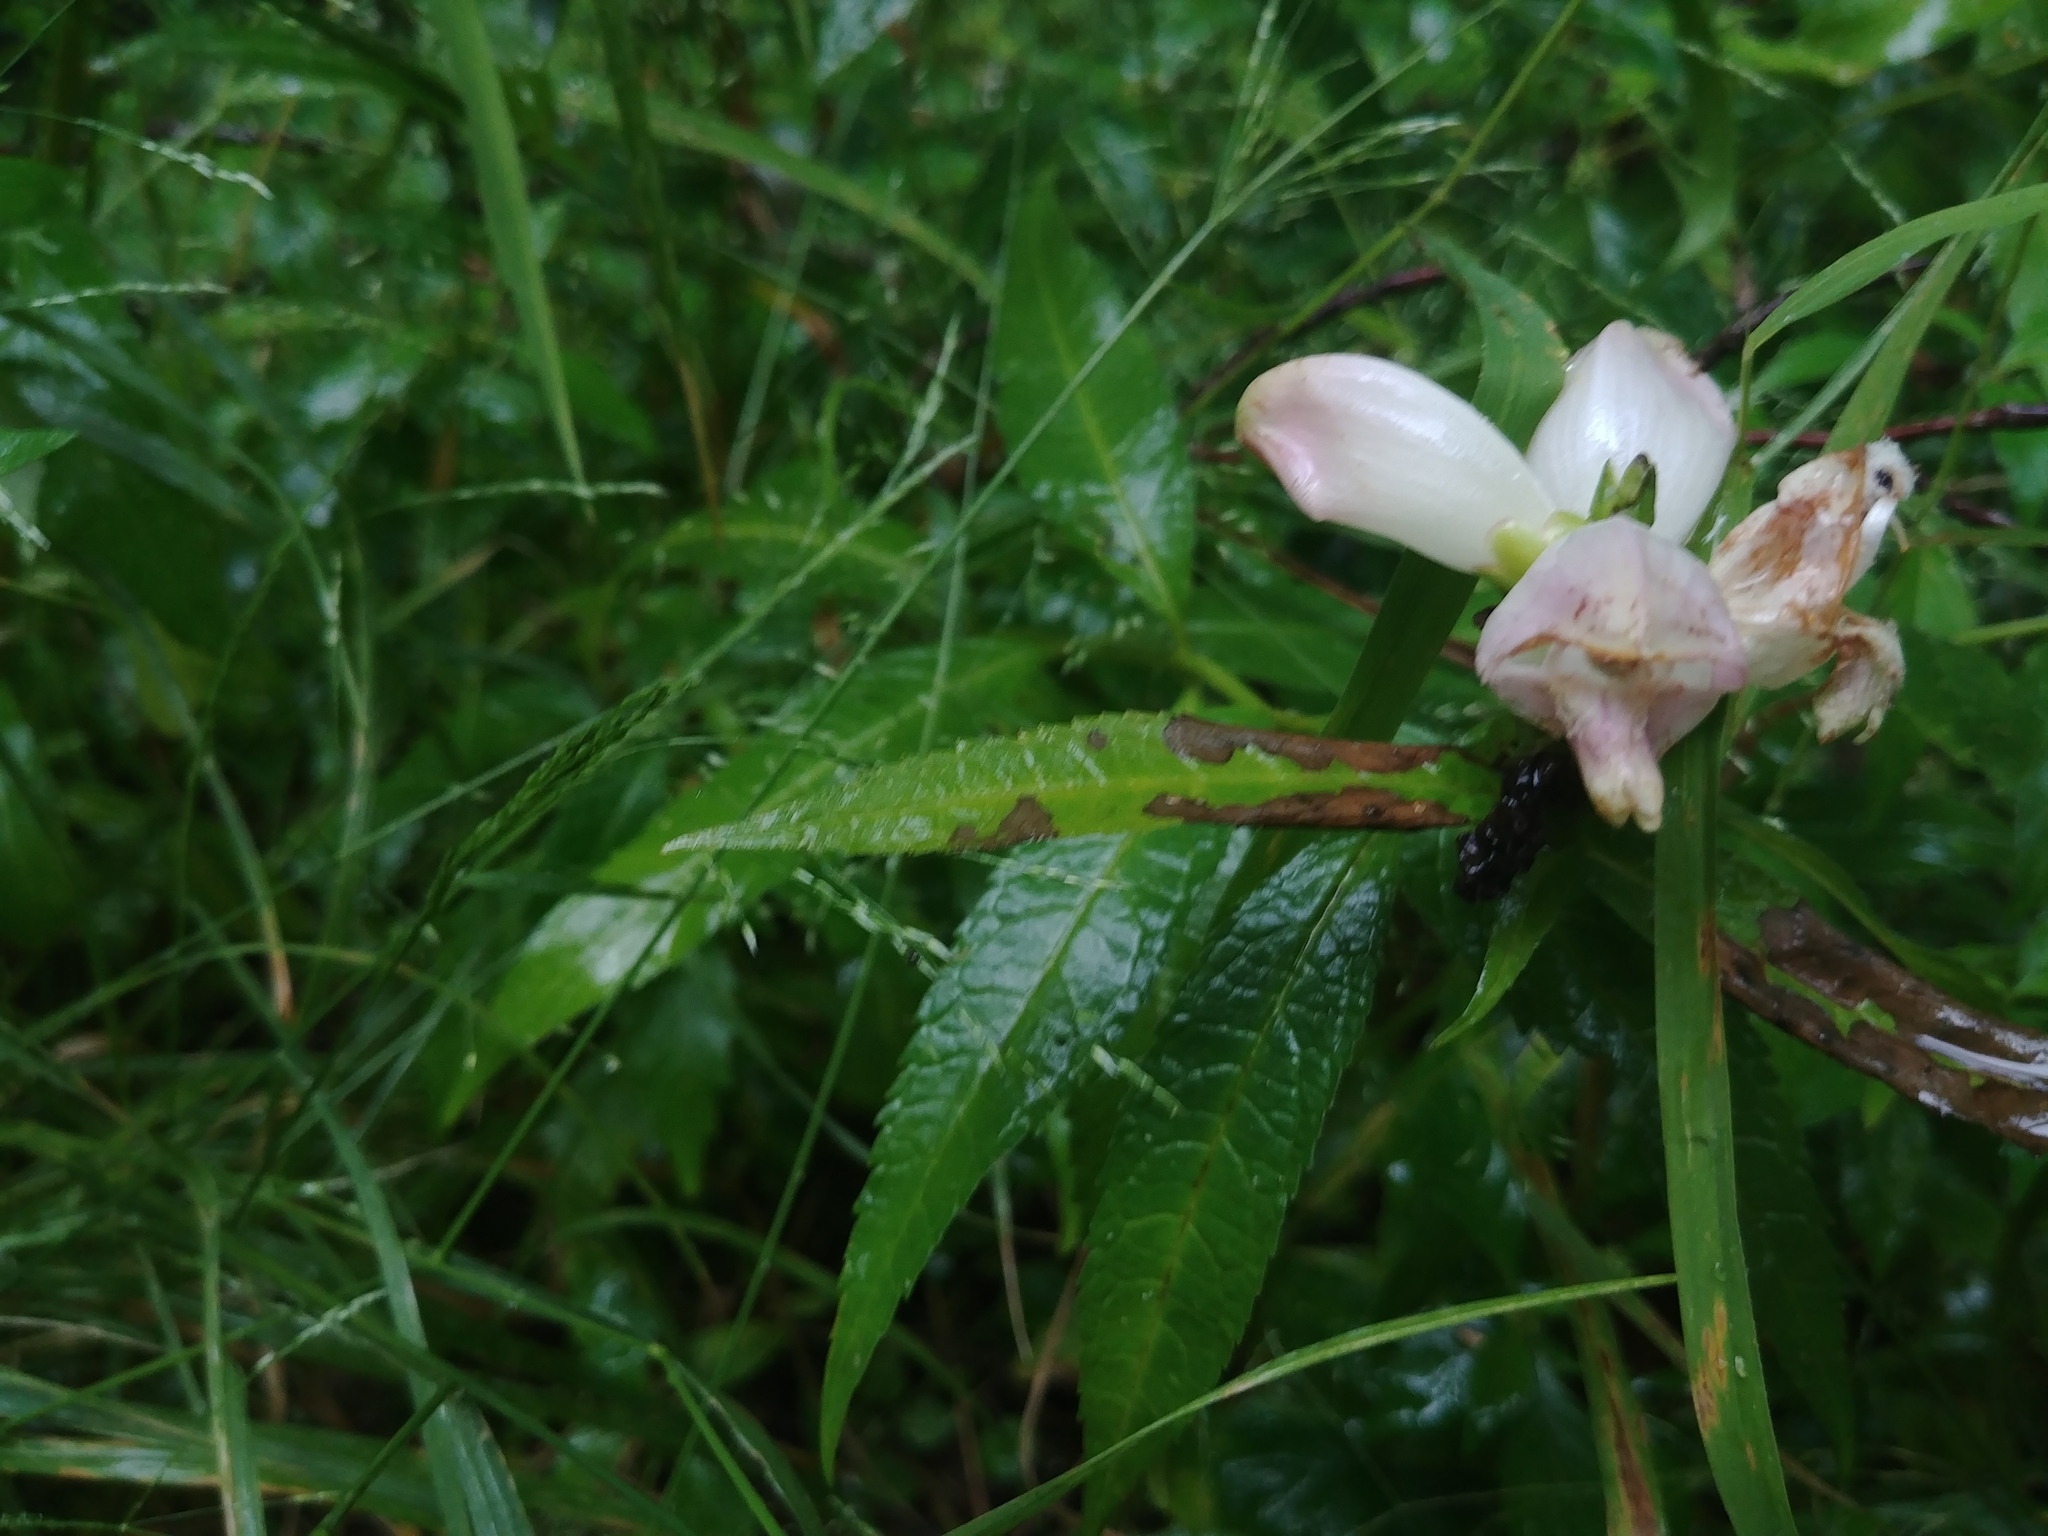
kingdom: Plantae
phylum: Tracheophyta
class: Magnoliopsida
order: Lamiales
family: Plantaginaceae
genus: Chelone
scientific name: Chelone glabra
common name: Snakehead
